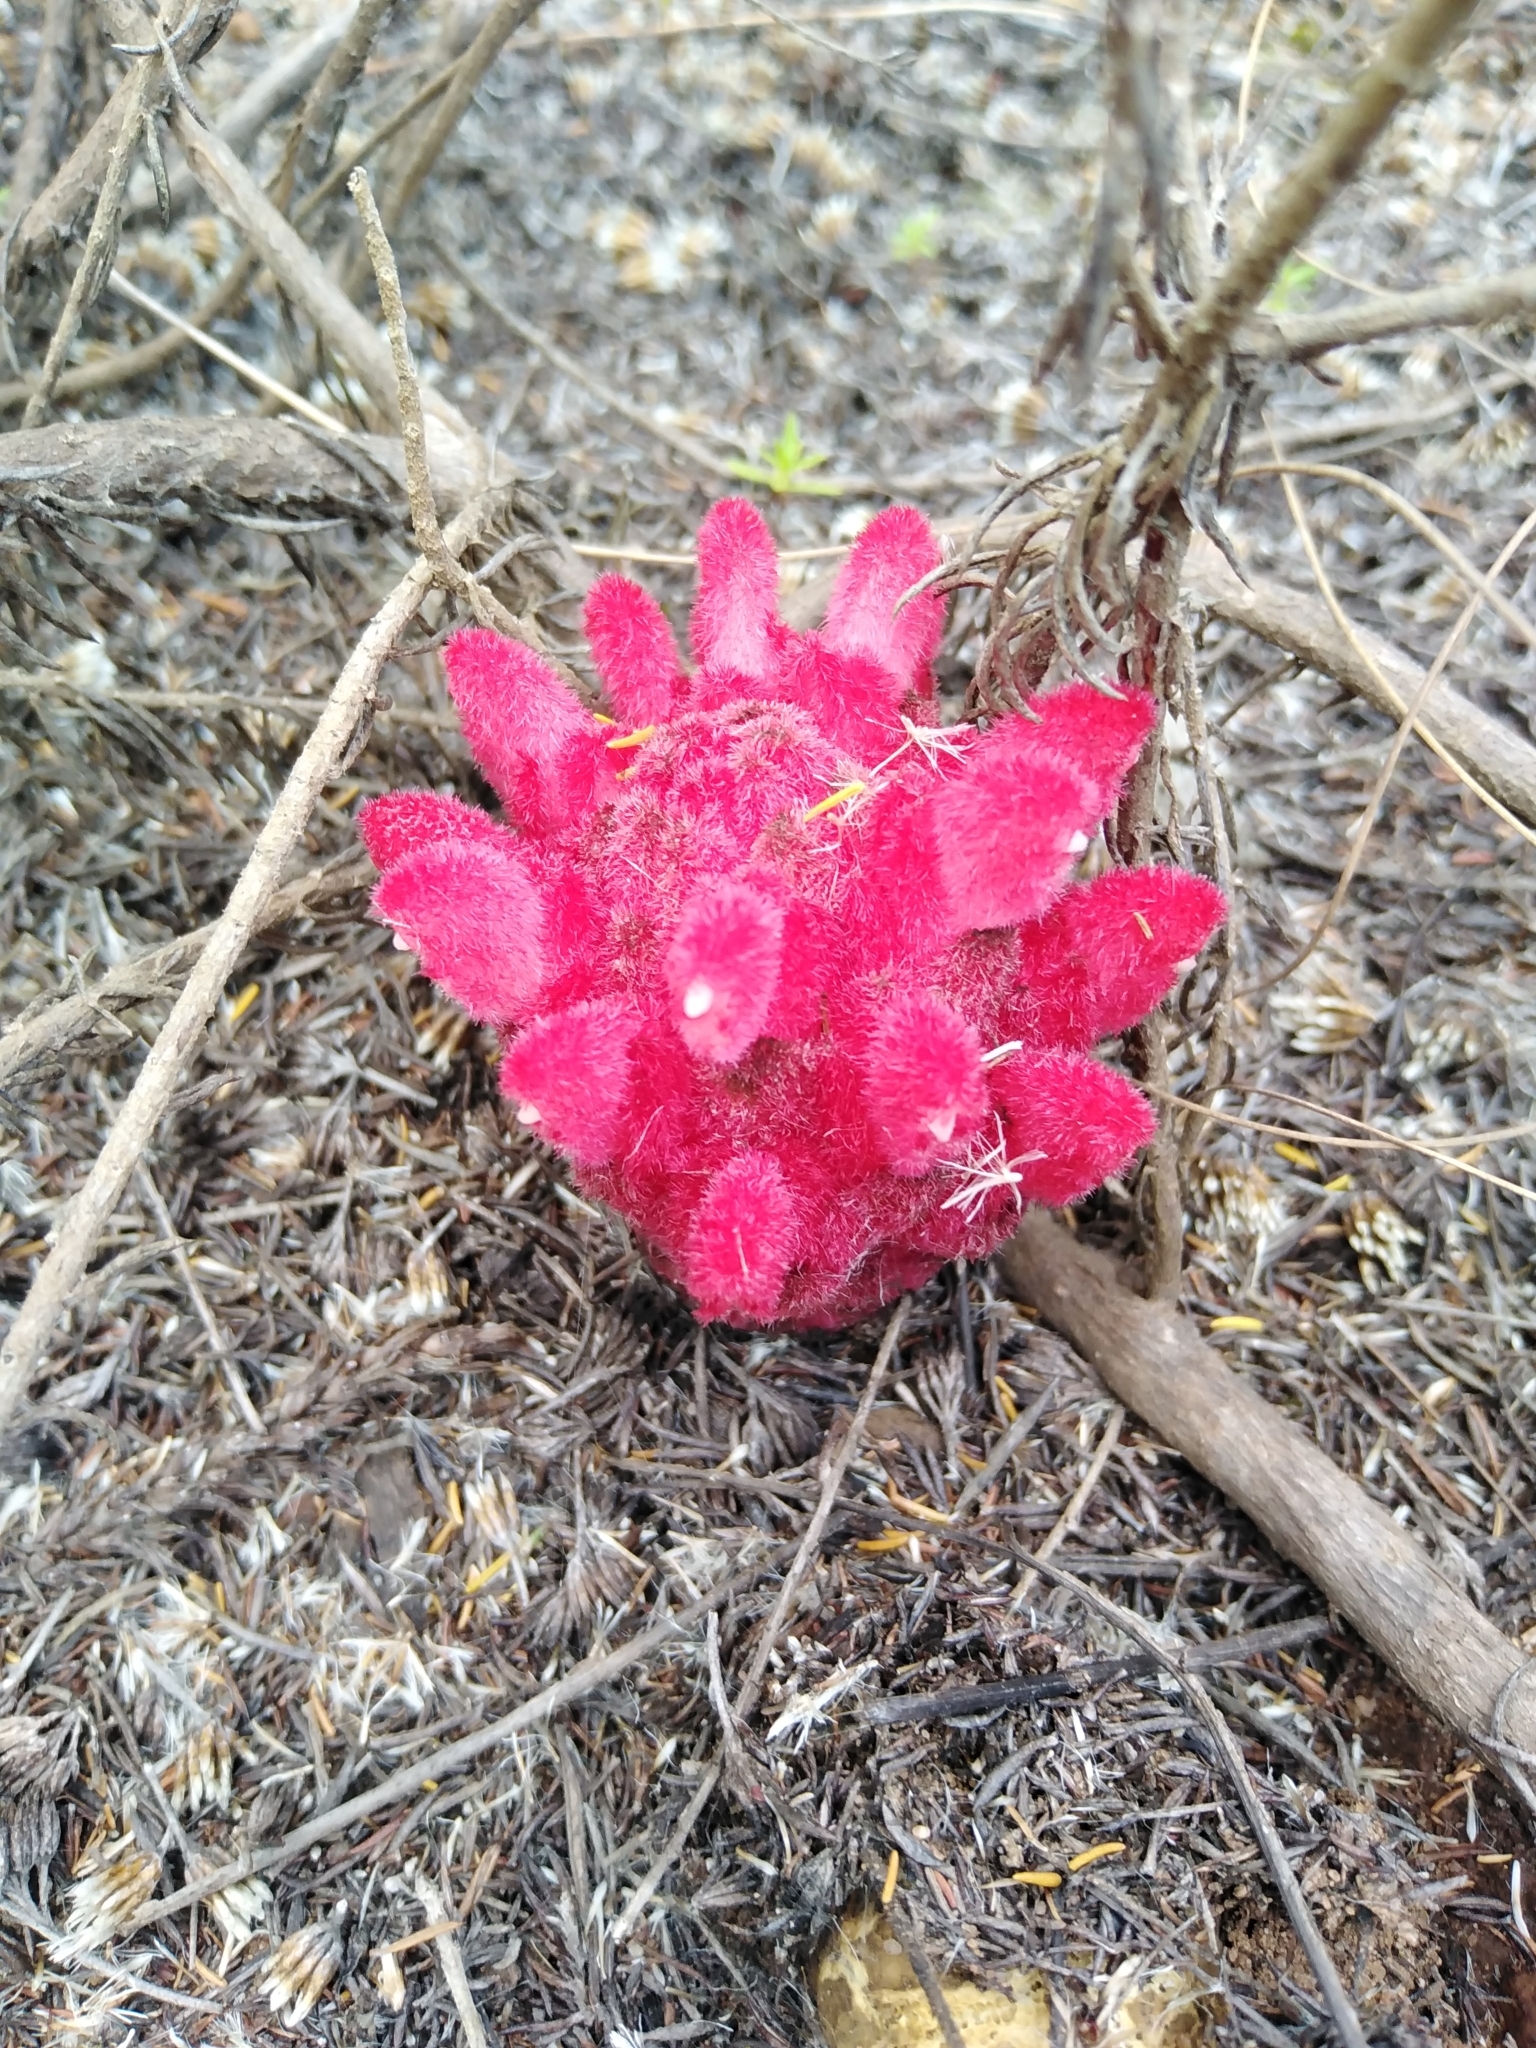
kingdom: Plantae
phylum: Tracheophyta
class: Magnoliopsida
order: Lamiales
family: Orobanchaceae
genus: Hyobanche
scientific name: Hyobanche sanguinea
